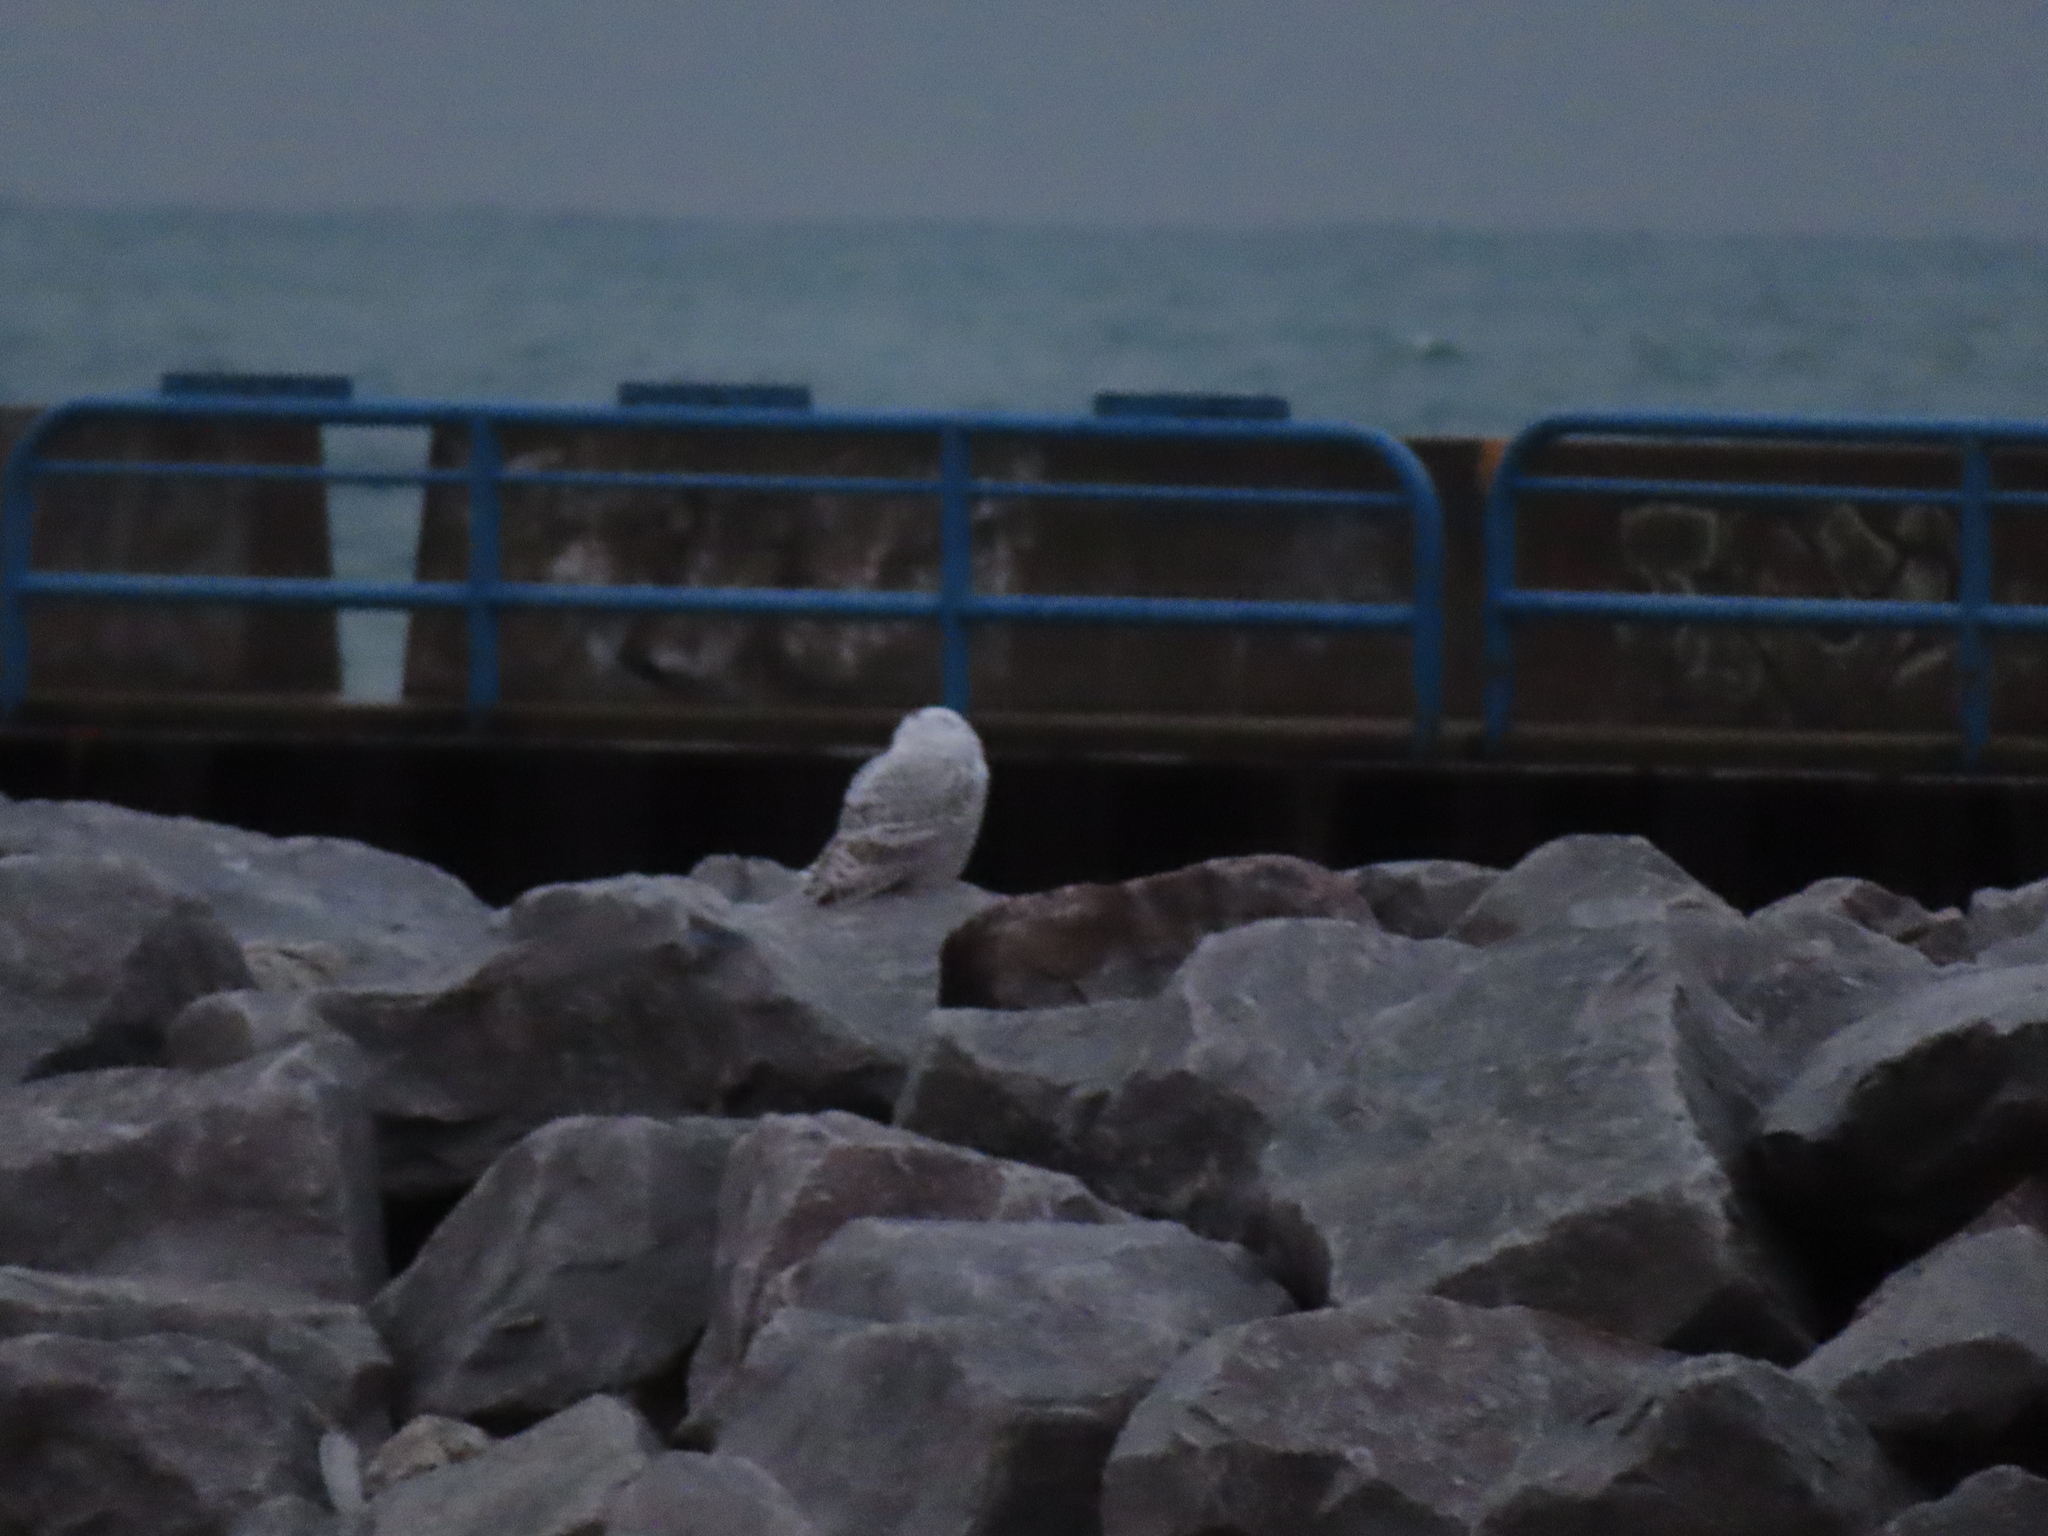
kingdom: Animalia
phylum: Chordata
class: Aves
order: Strigiformes
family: Strigidae
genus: Bubo
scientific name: Bubo scandiacus
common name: Snowy owl
